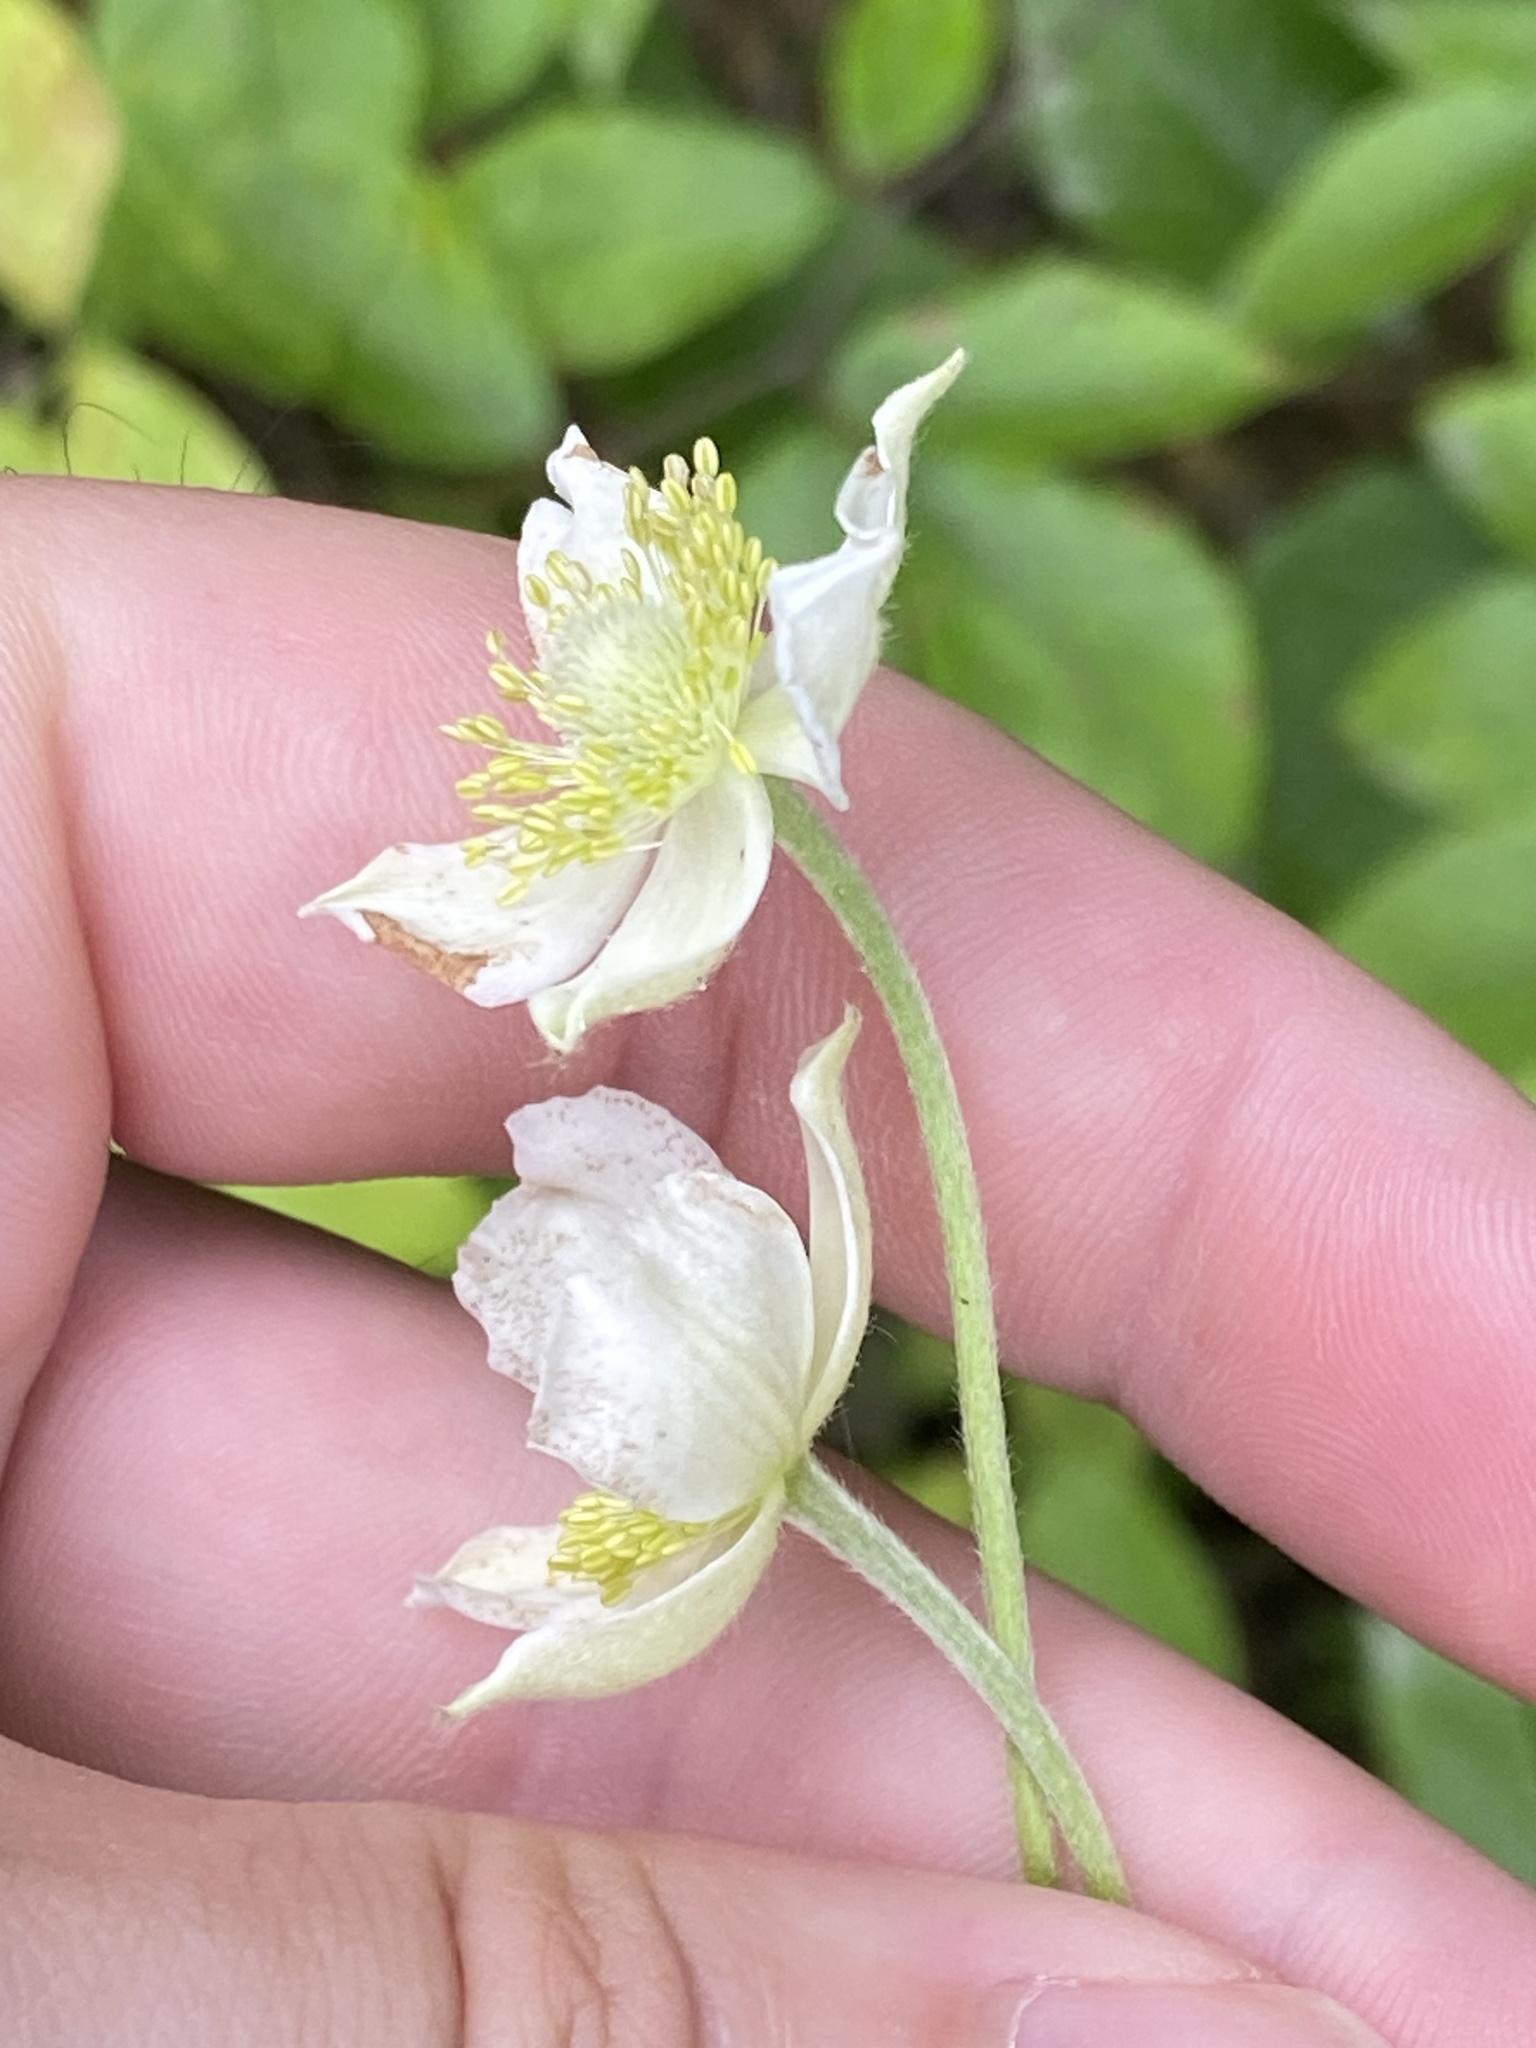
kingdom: Plantae
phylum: Tracheophyta
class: Magnoliopsida
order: Ranunculales
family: Ranunculaceae
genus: Anemone
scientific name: Anemone virginiana
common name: Tall anemone
